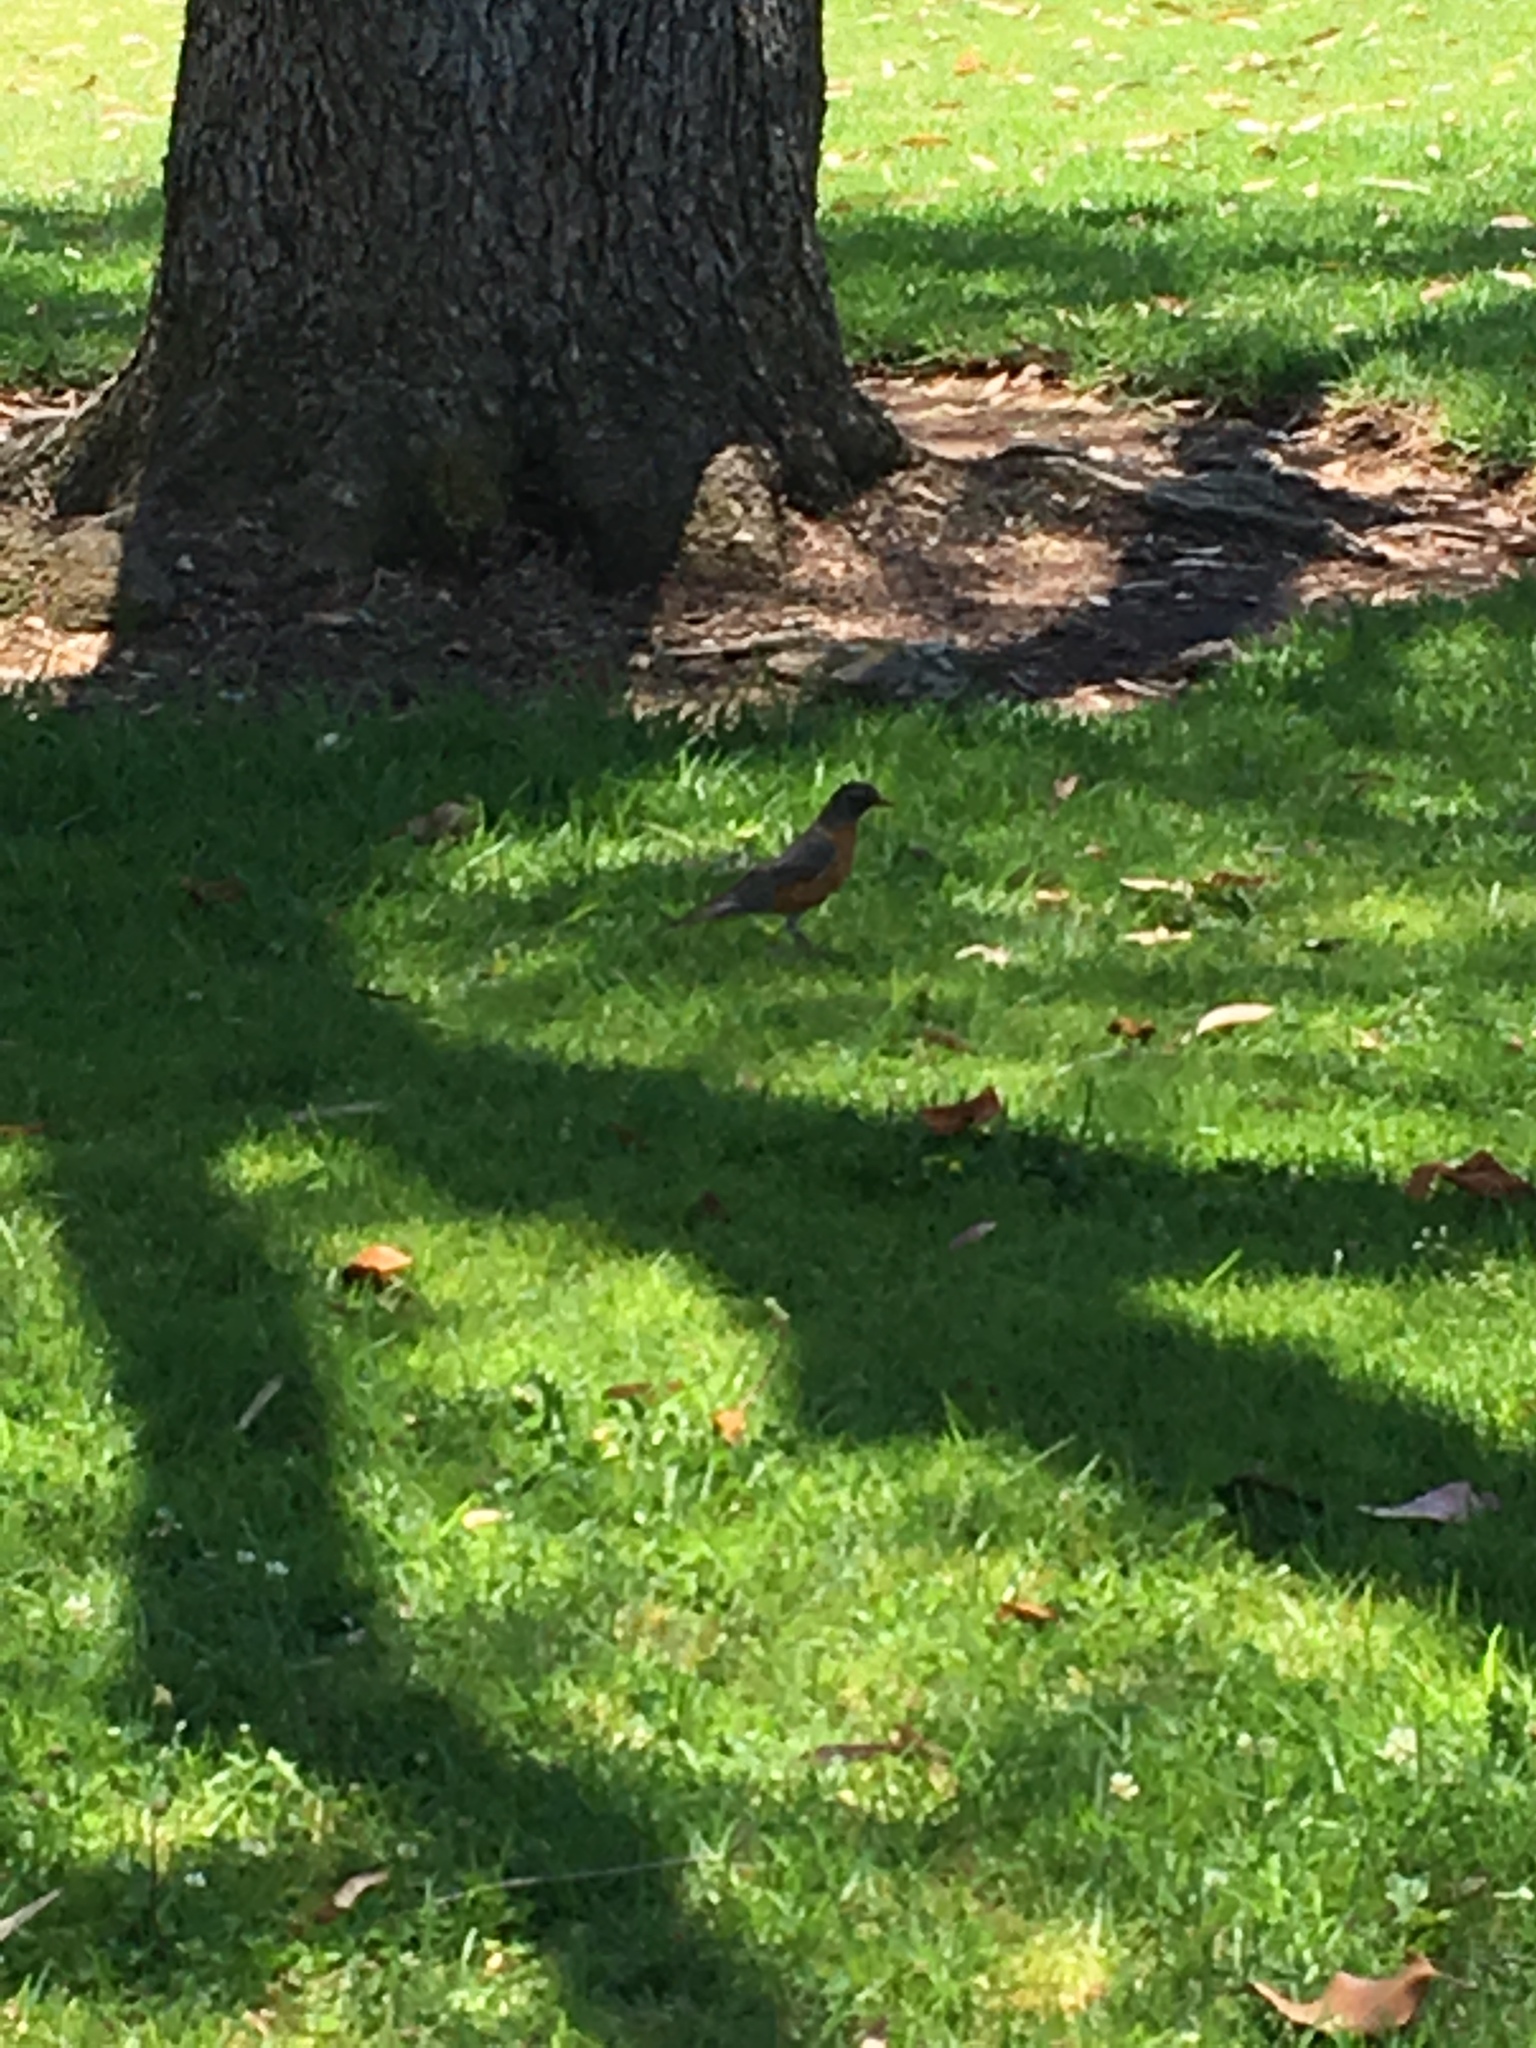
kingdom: Animalia
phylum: Chordata
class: Aves
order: Passeriformes
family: Turdidae
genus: Turdus
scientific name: Turdus migratorius
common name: American robin
